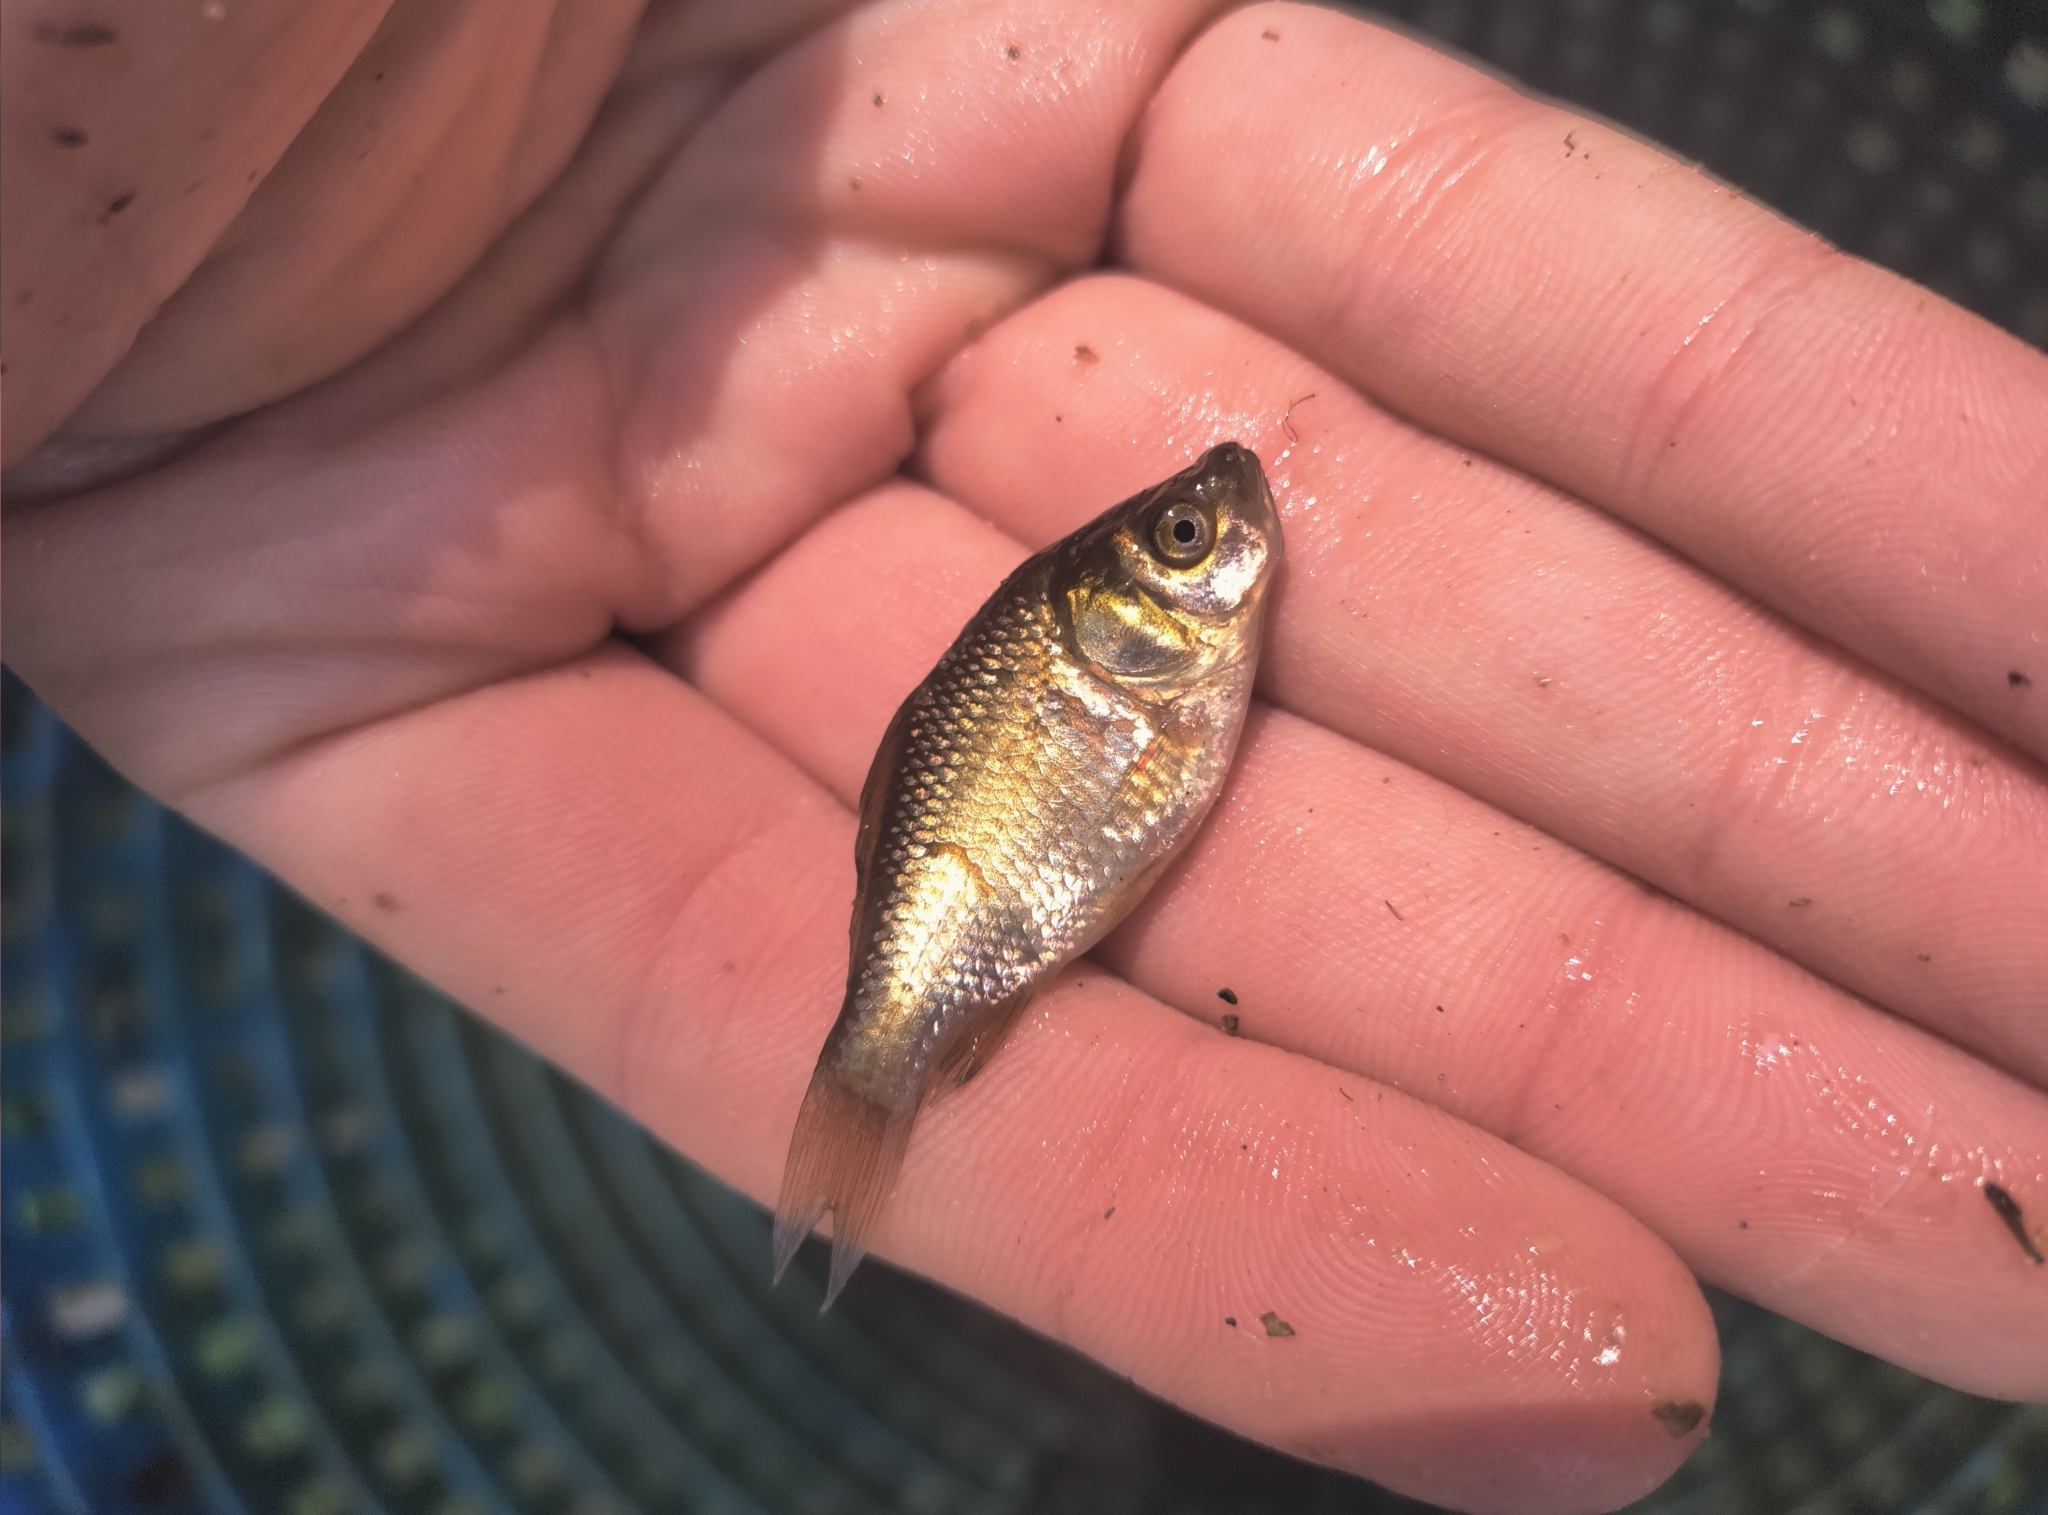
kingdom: Animalia
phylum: Chordata
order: Cypriniformes
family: Cyprinidae
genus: Carassius
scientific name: Carassius auratus
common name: Goldfish
